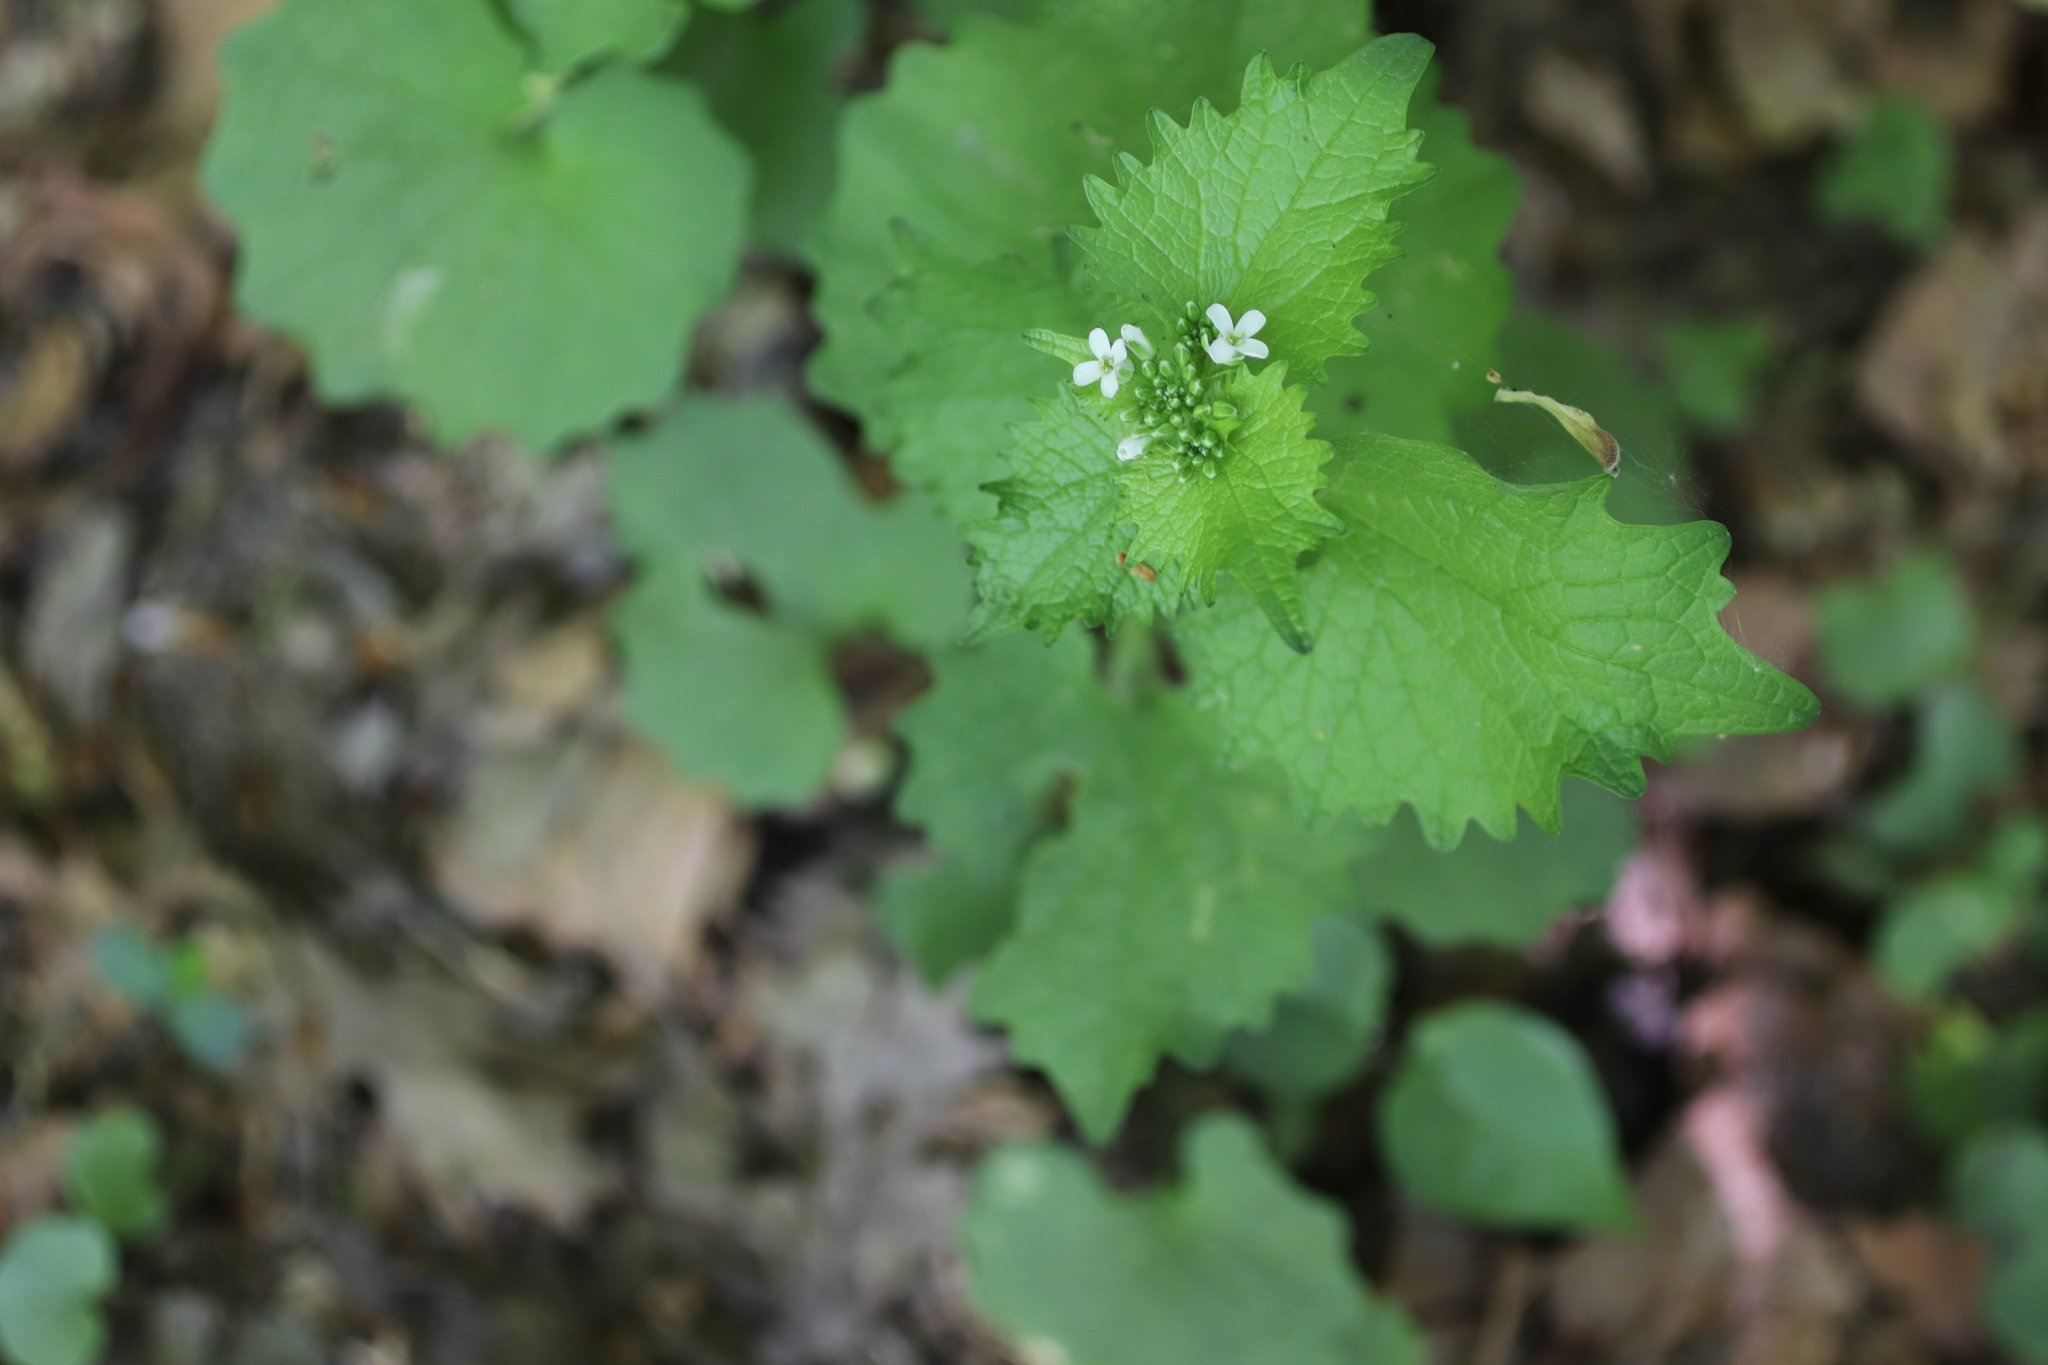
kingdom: Plantae
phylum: Tracheophyta
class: Magnoliopsida
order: Brassicales
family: Brassicaceae
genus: Alliaria
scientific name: Alliaria petiolata
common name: Garlic mustard
